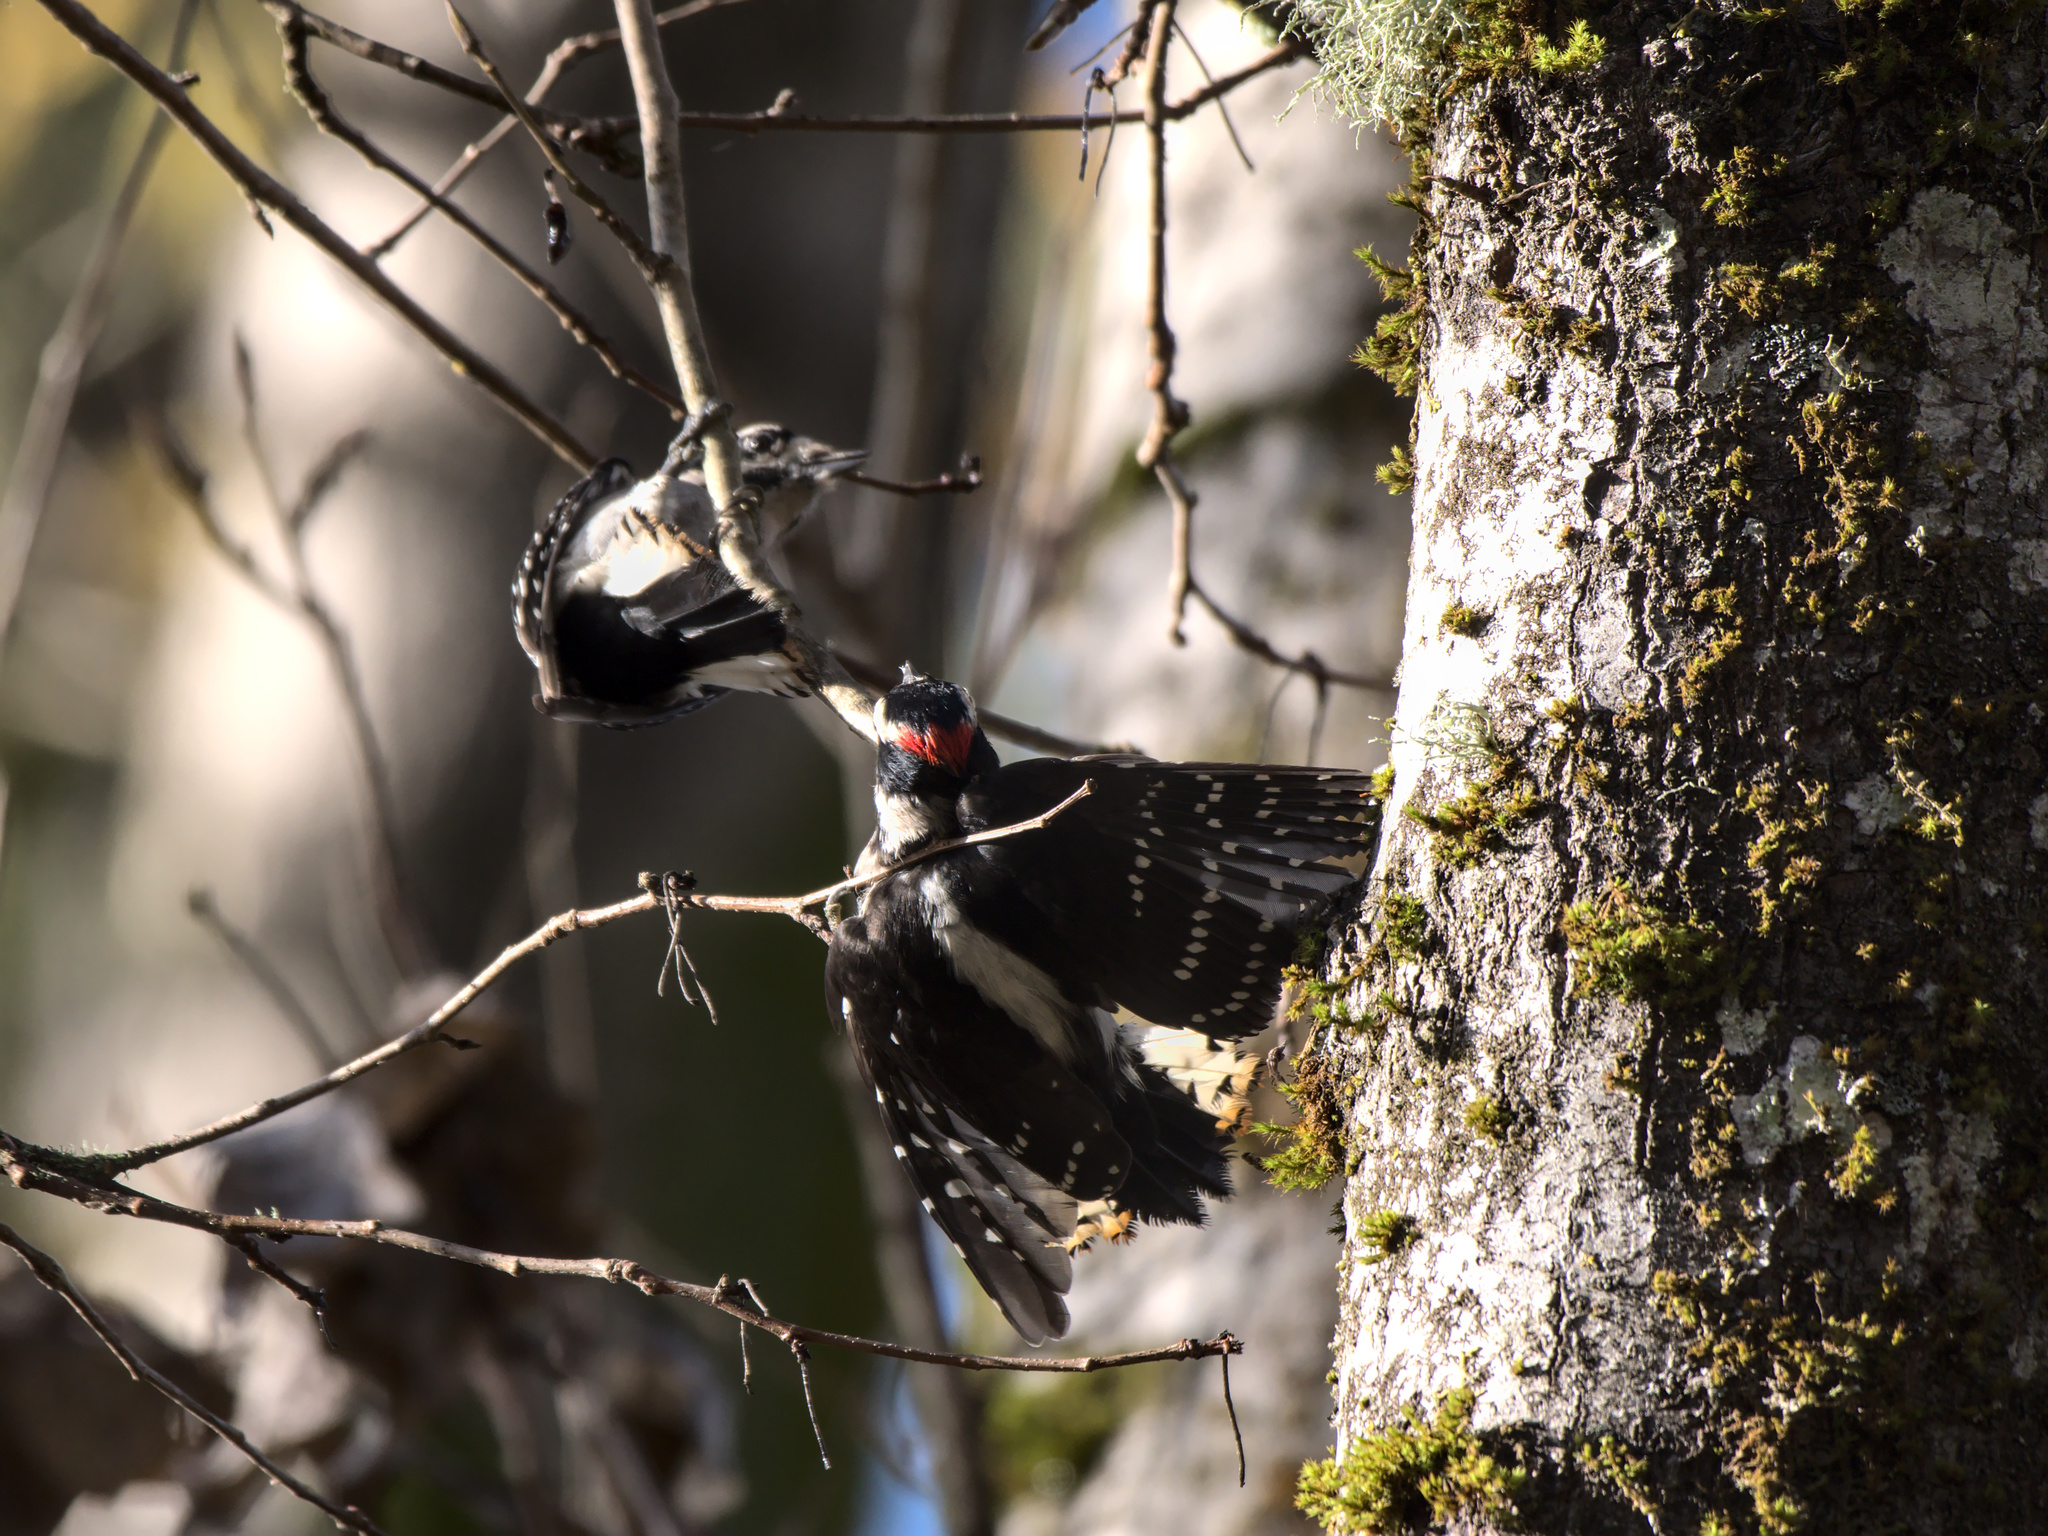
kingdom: Animalia
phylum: Chordata
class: Aves
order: Piciformes
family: Picidae
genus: Dryobates
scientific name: Dryobates pubescens
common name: Downy woodpecker
